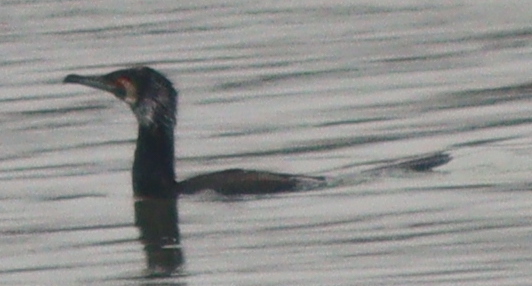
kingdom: Animalia
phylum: Chordata
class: Aves
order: Suliformes
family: Phalacrocoracidae
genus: Phalacrocorax
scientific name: Phalacrocorax carbo
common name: Great cormorant
